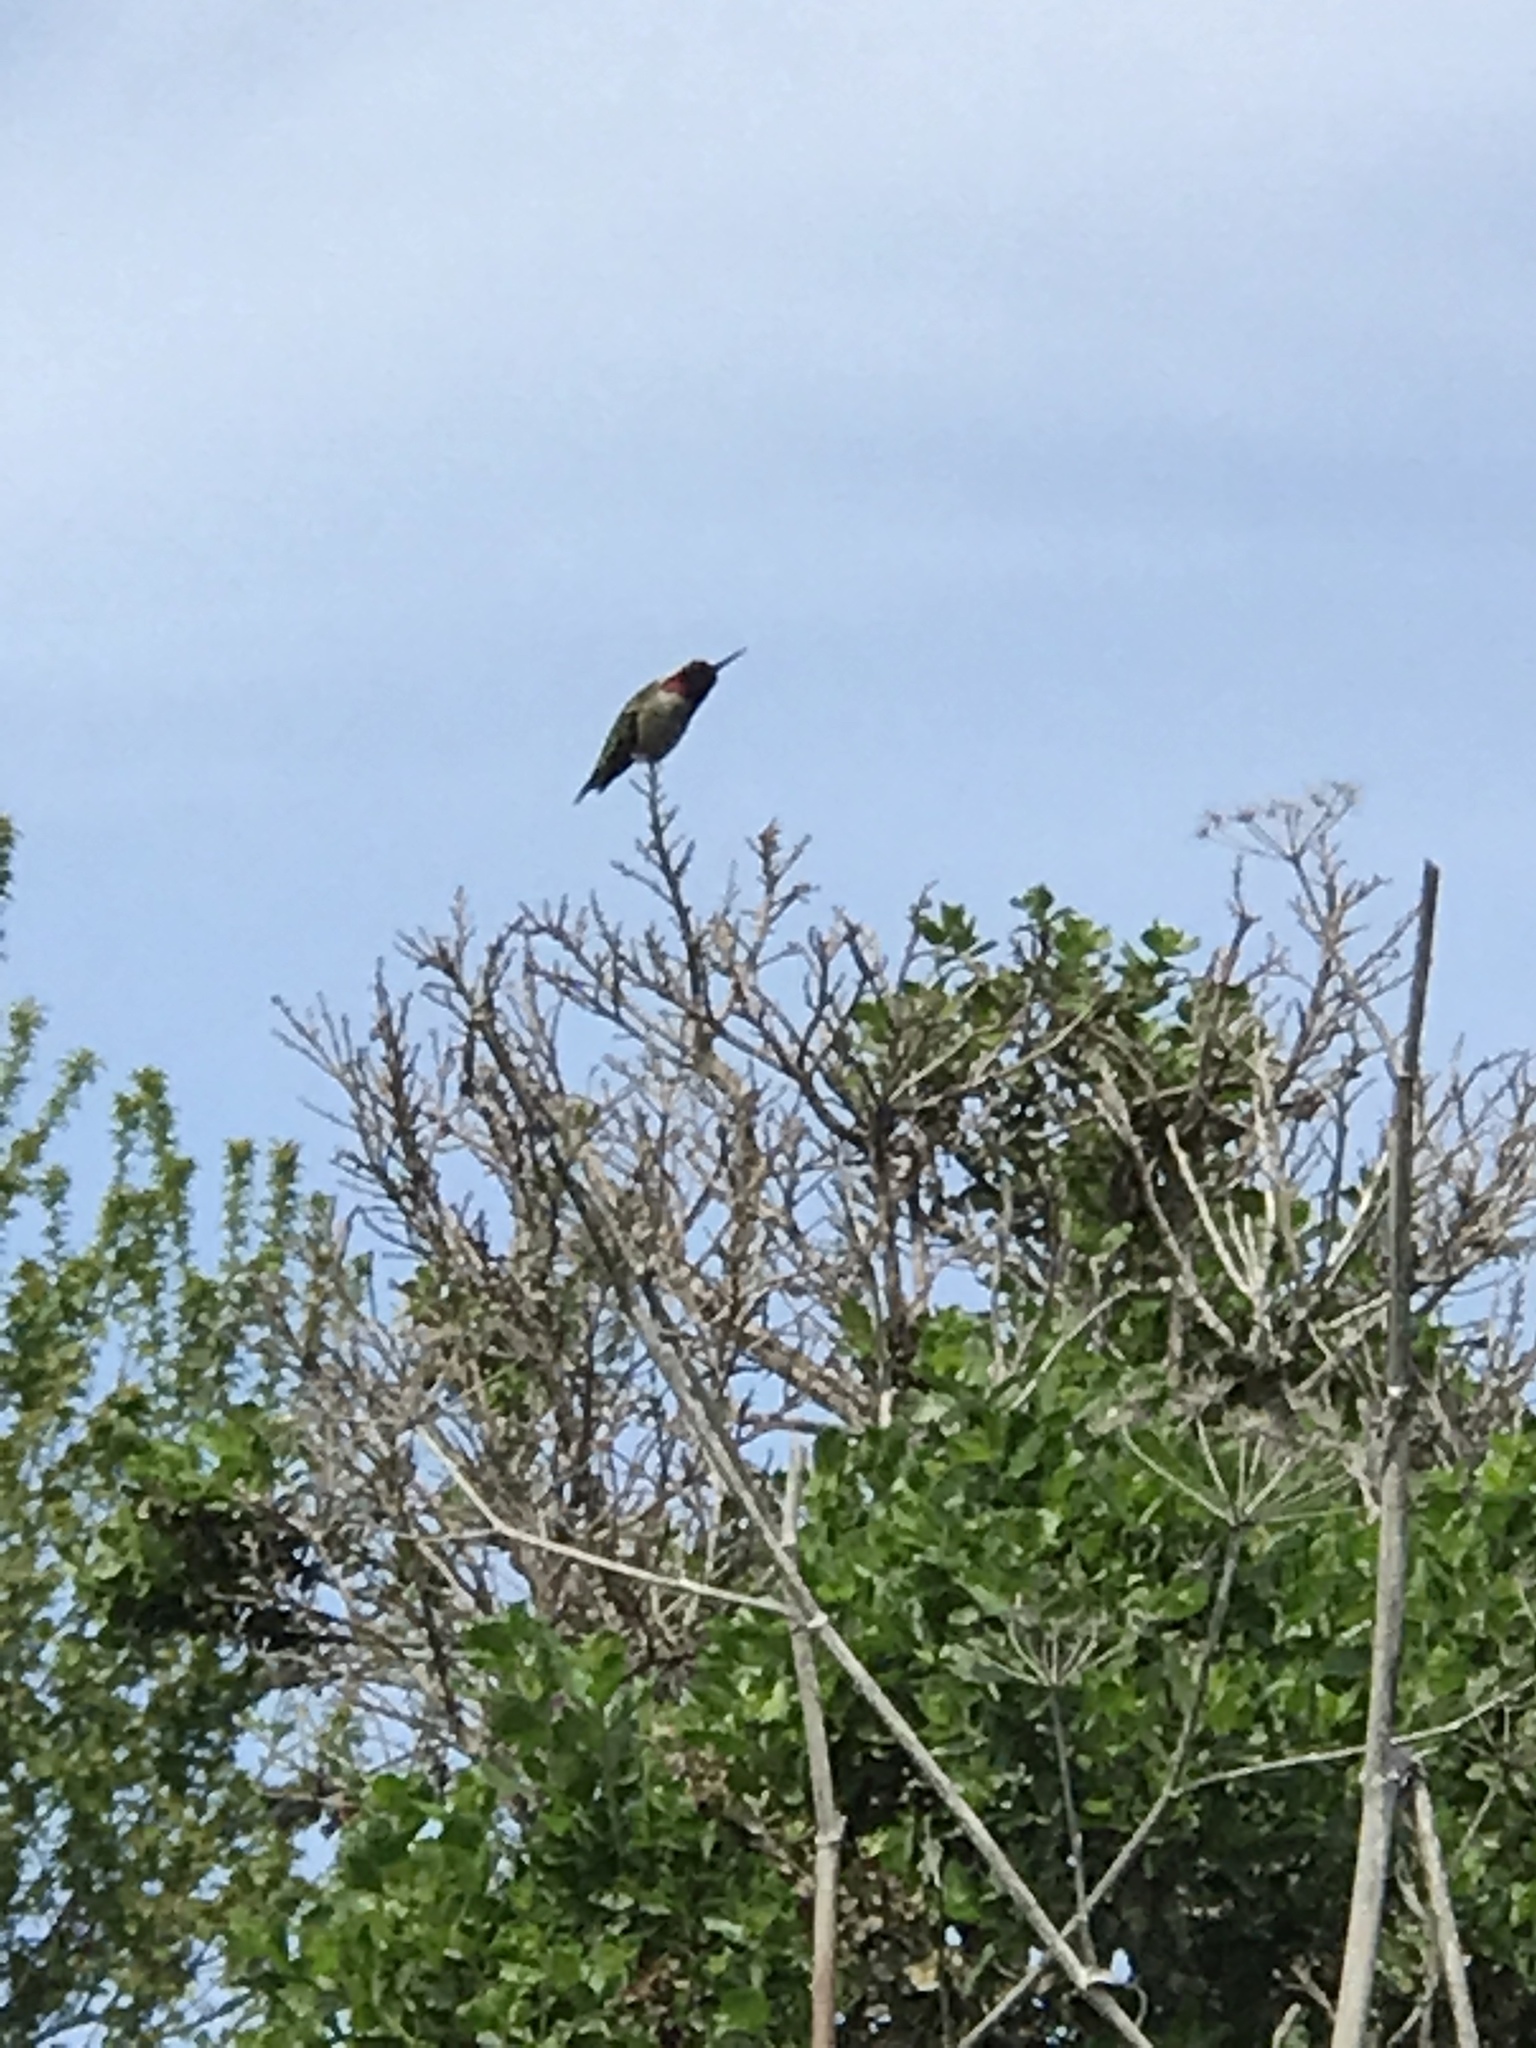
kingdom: Animalia
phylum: Chordata
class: Aves
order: Apodiformes
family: Trochilidae
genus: Calypte
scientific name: Calypte anna
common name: Anna's hummingbird
